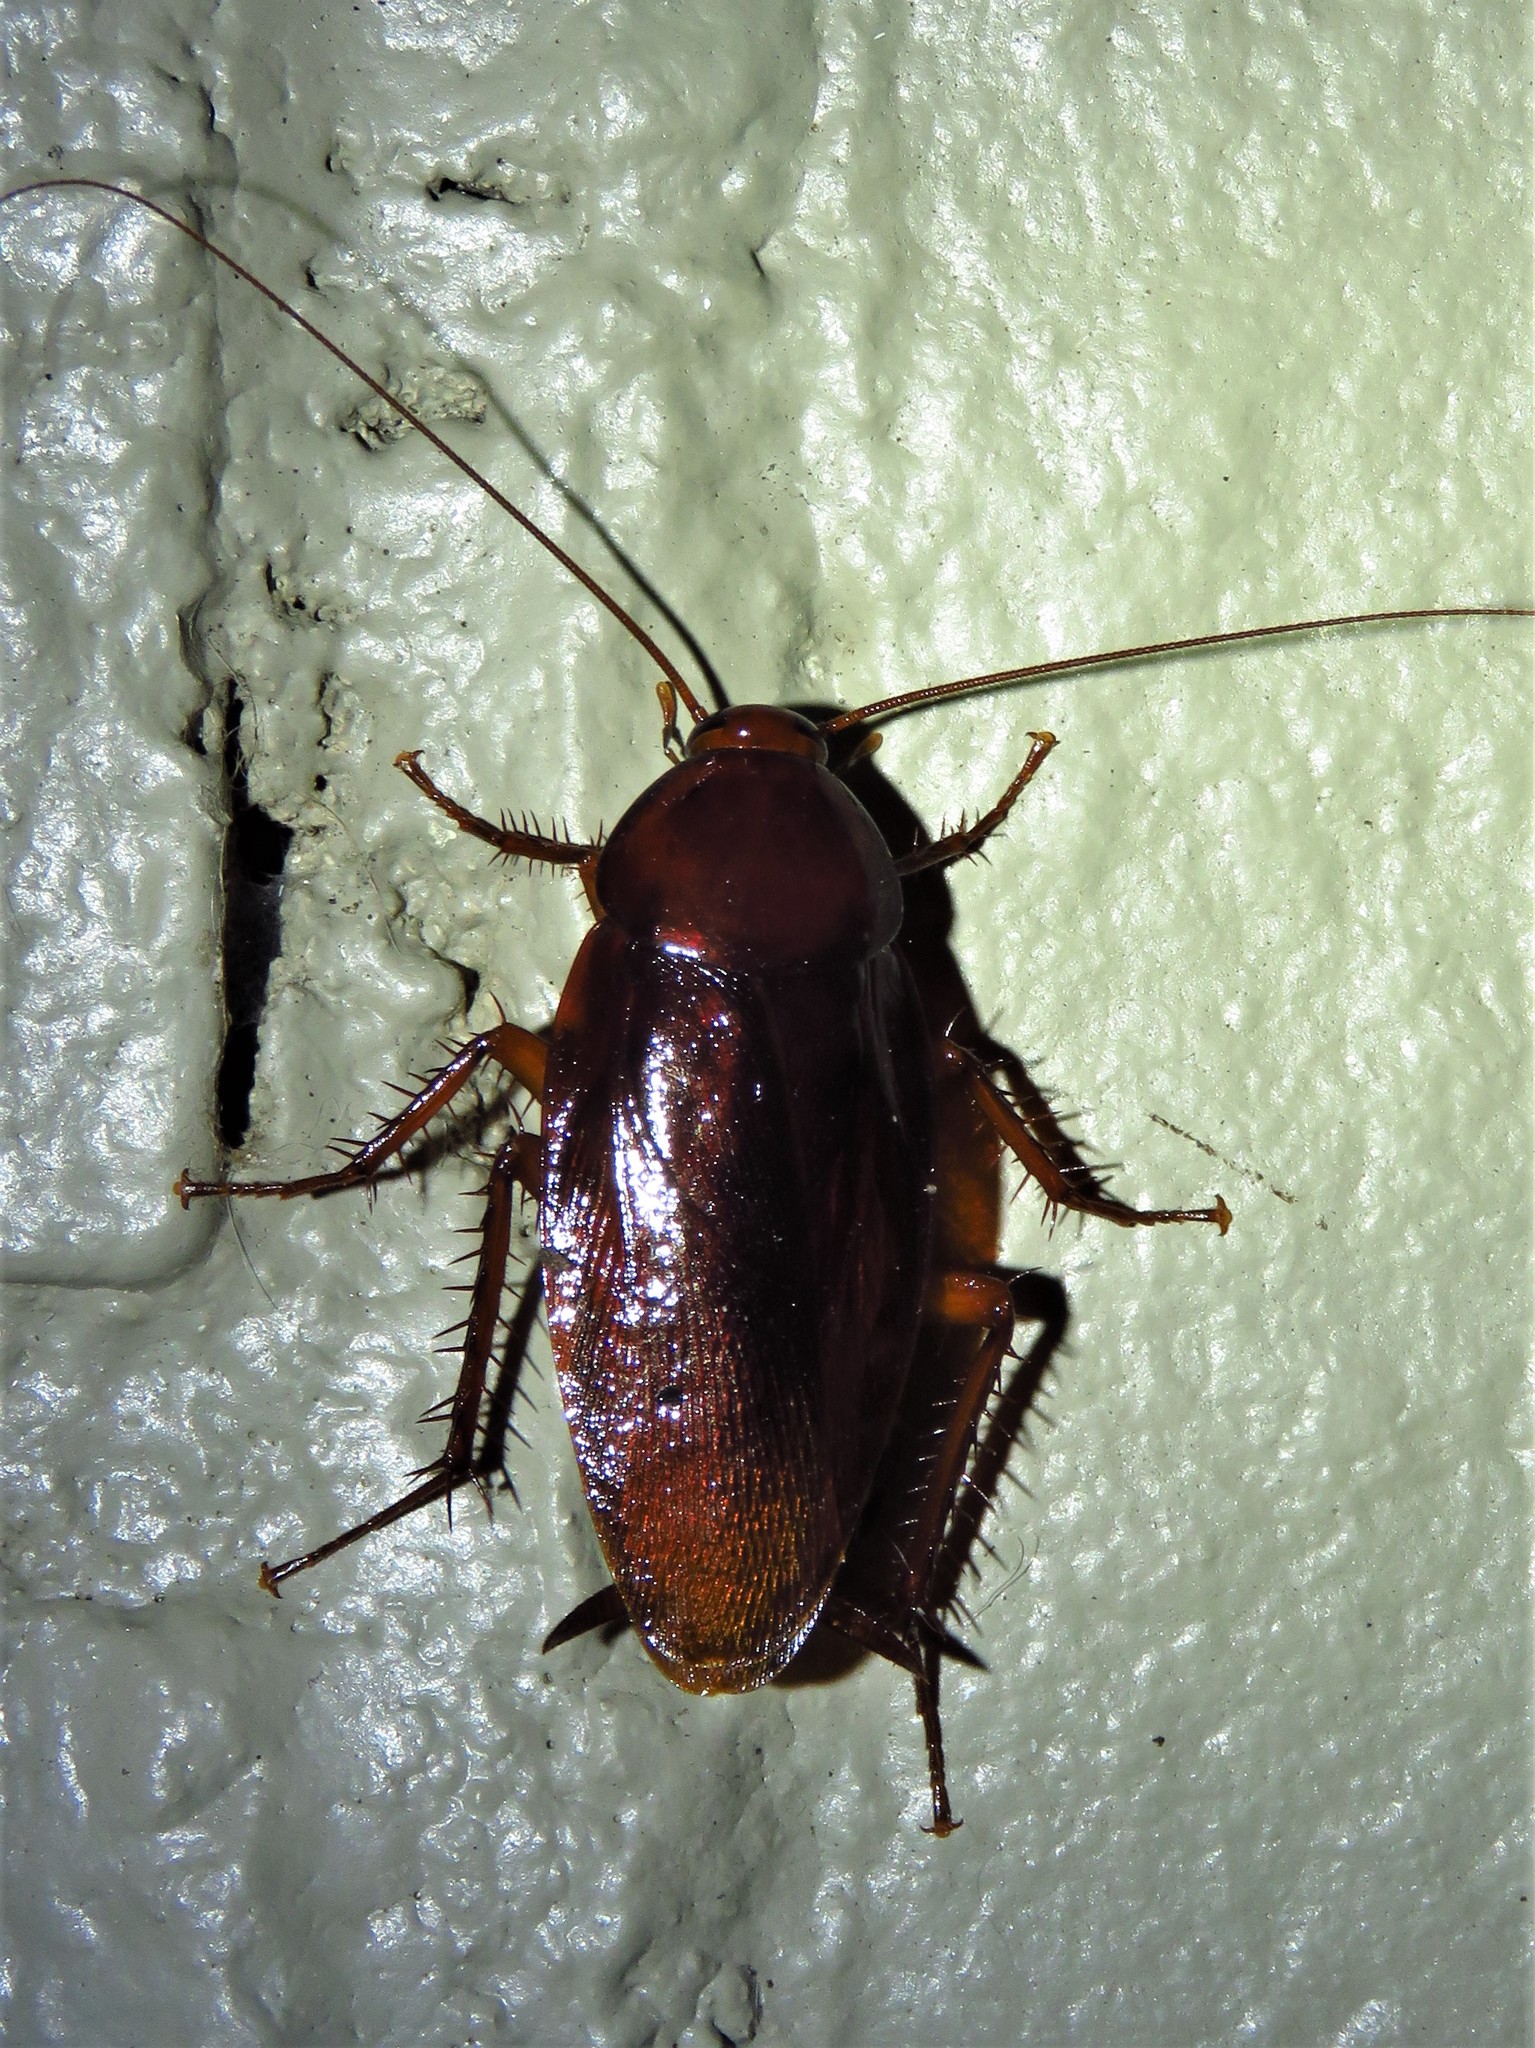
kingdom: Animalia
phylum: Arthropoda
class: Insecta
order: Blattodea
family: Blattidae
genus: Periplaneta
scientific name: Periplaneta fuliginosa
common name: Smokeybrown cockroad
